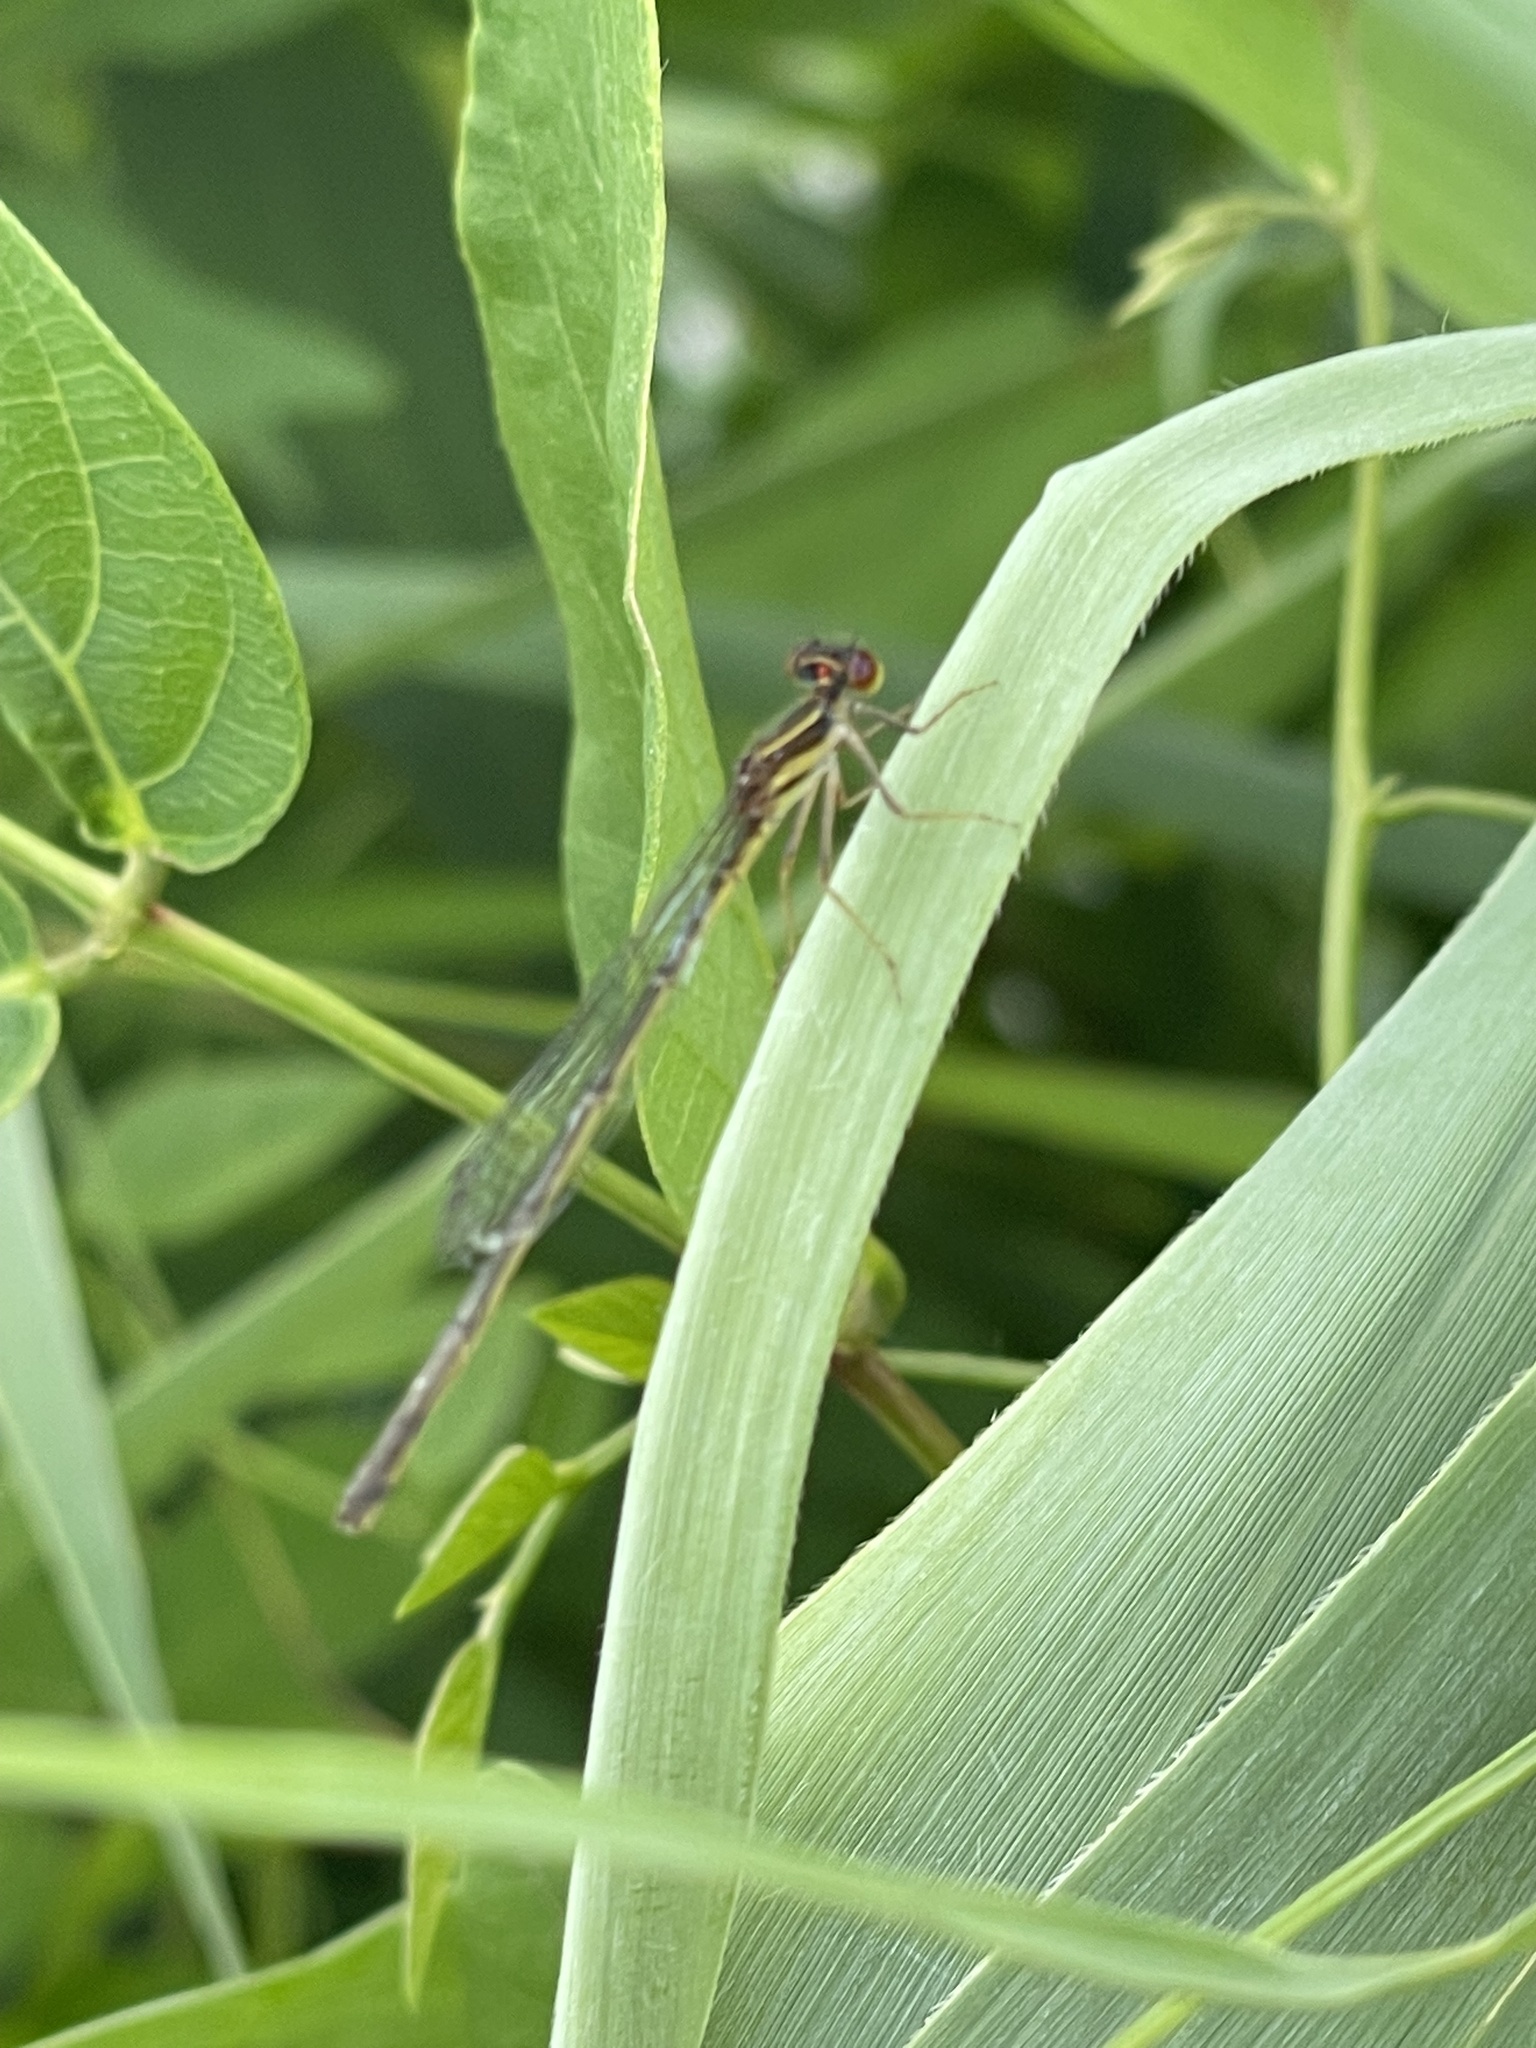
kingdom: Animalia
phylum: Arthropoda
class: Insecta
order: Odonata
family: Coenagrionidae
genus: Enallagma
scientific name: Enallagma dubium
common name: Burgundy bluet
